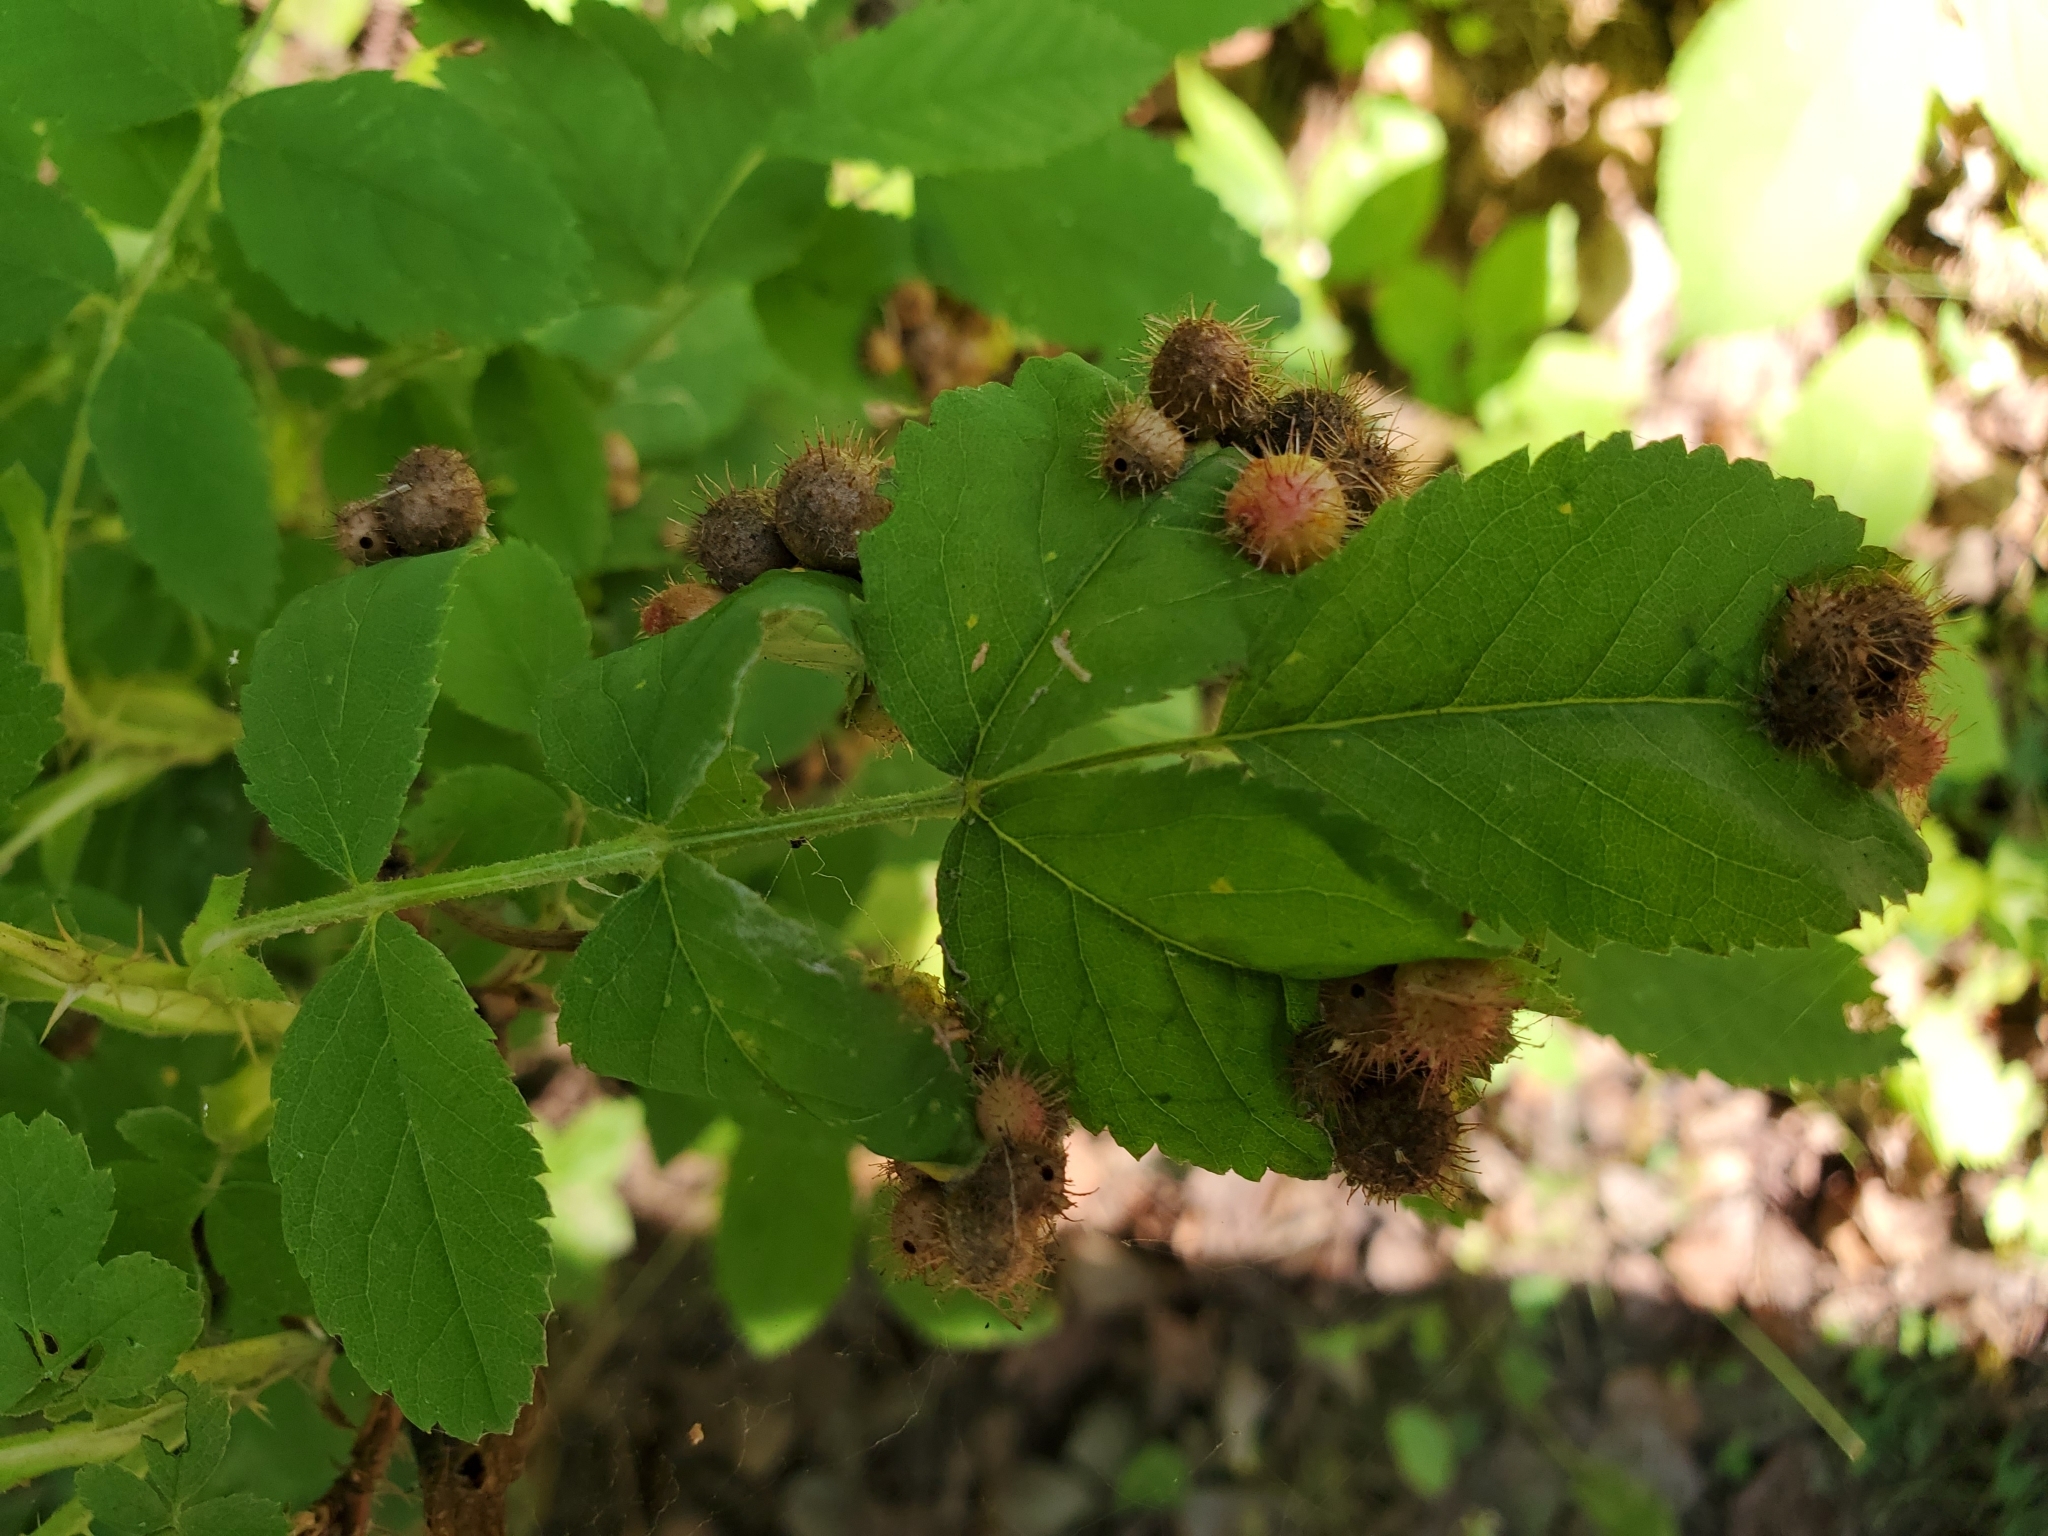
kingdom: Animalia
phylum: Arthropoda
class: Insecta
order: Hymenoptera
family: Cynipidae
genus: Diplolepis
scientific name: Diplolepis polita
